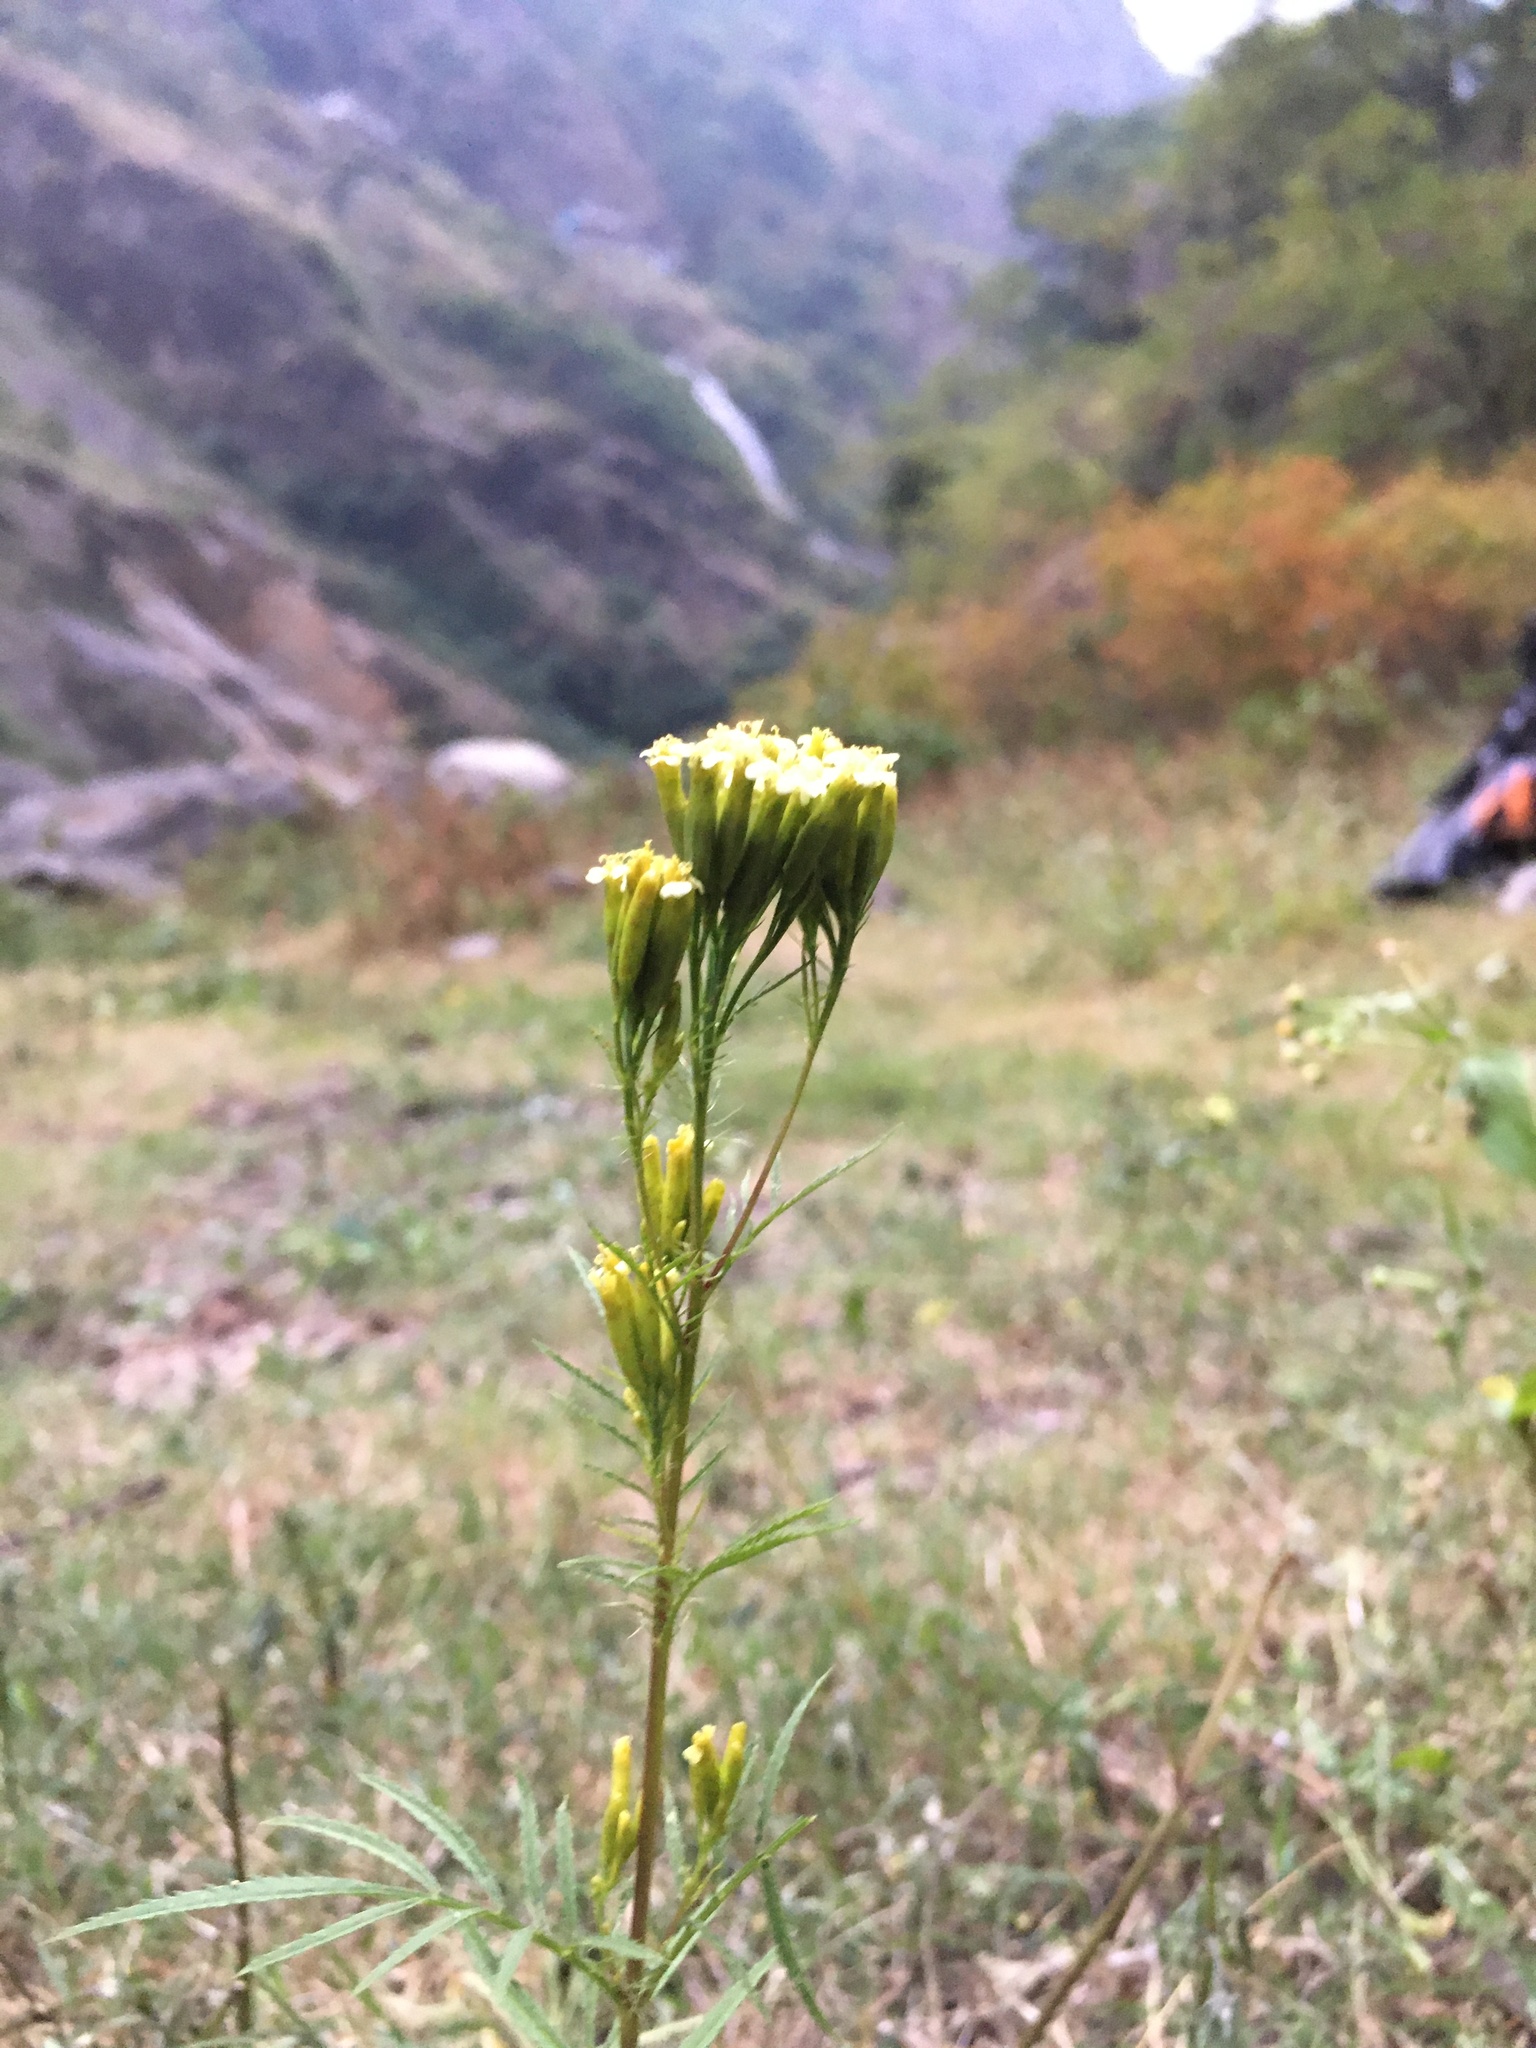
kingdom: Plantae
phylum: Tracheophyta
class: Magnoliopsida
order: Asterales
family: Asteraceae
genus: Tagetes
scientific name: Tagetes minuta
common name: Muster john henry
